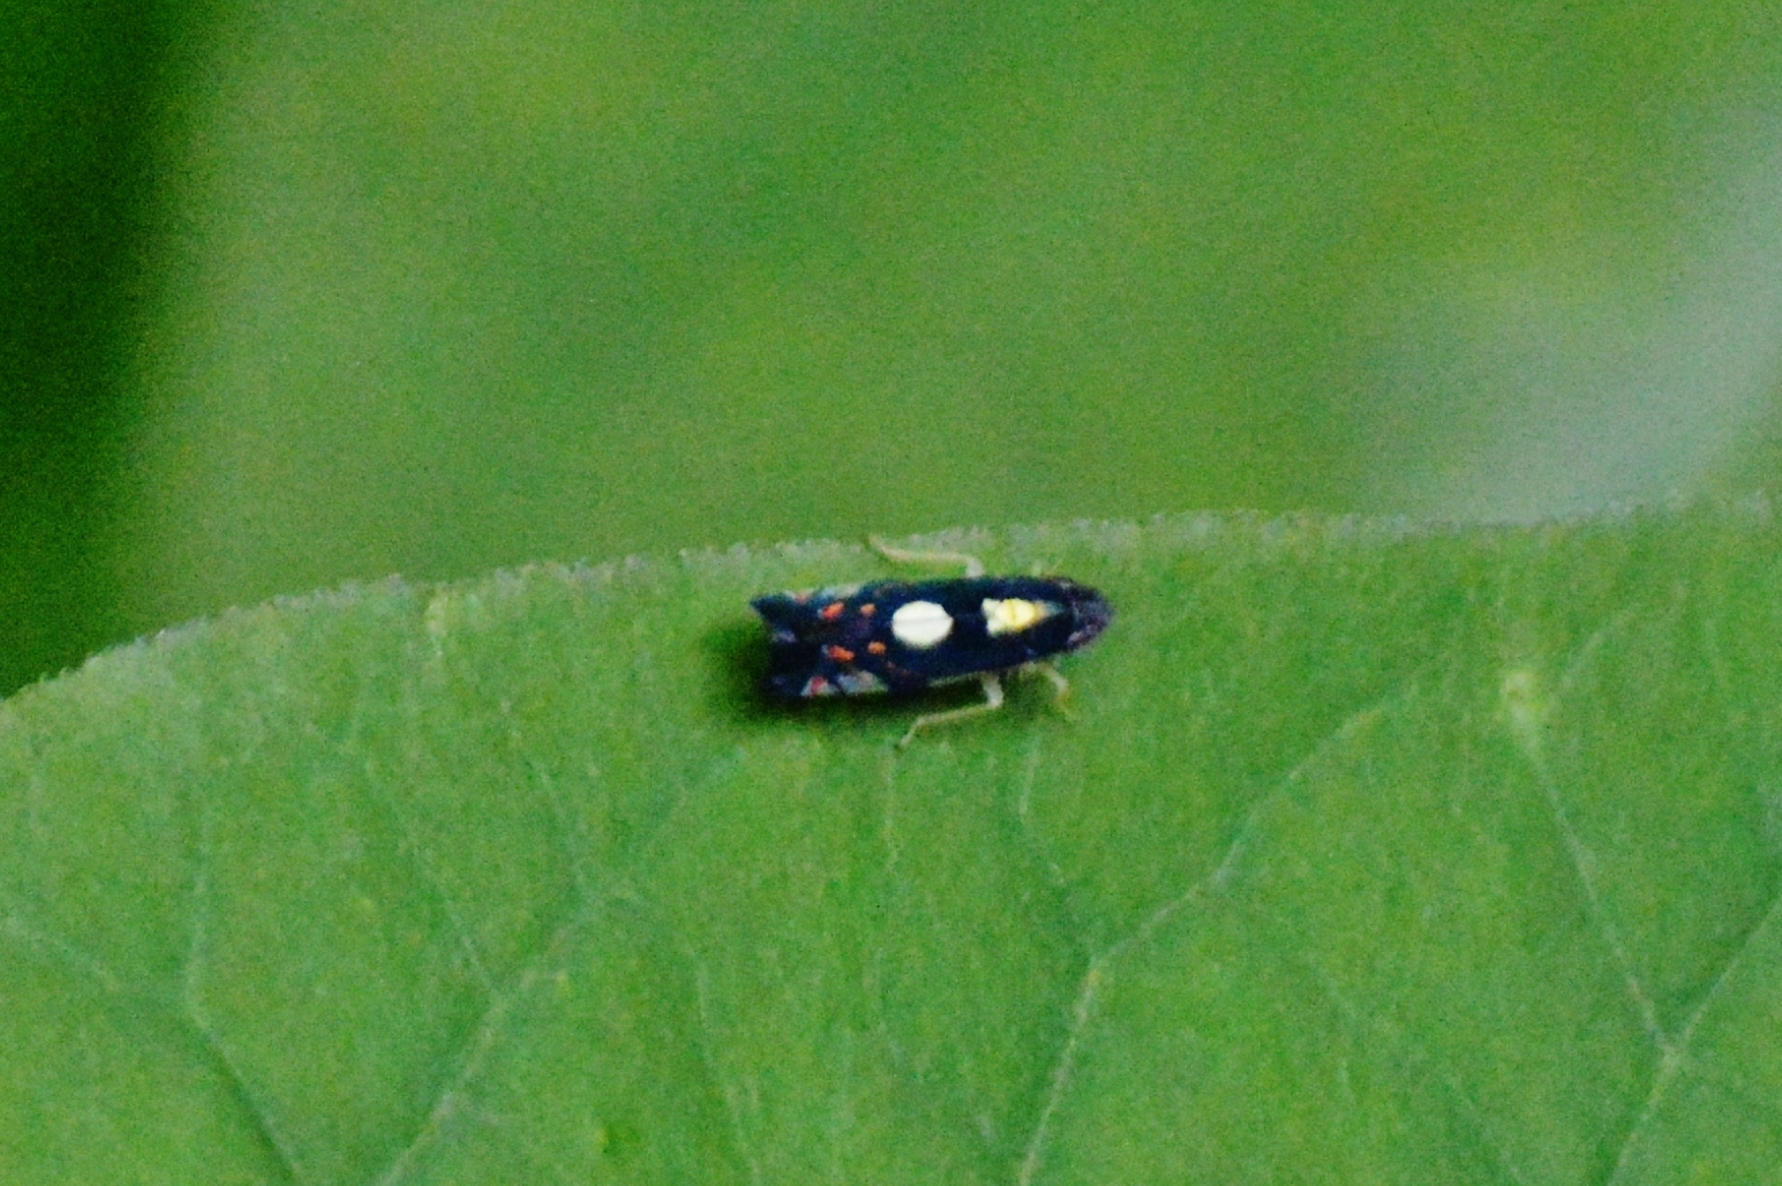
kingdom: Animalia
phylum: Arthropoda
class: Insecta
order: Hemiptera
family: Cicadellidae
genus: Diedrocephala
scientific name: Diedrocephala variegata
